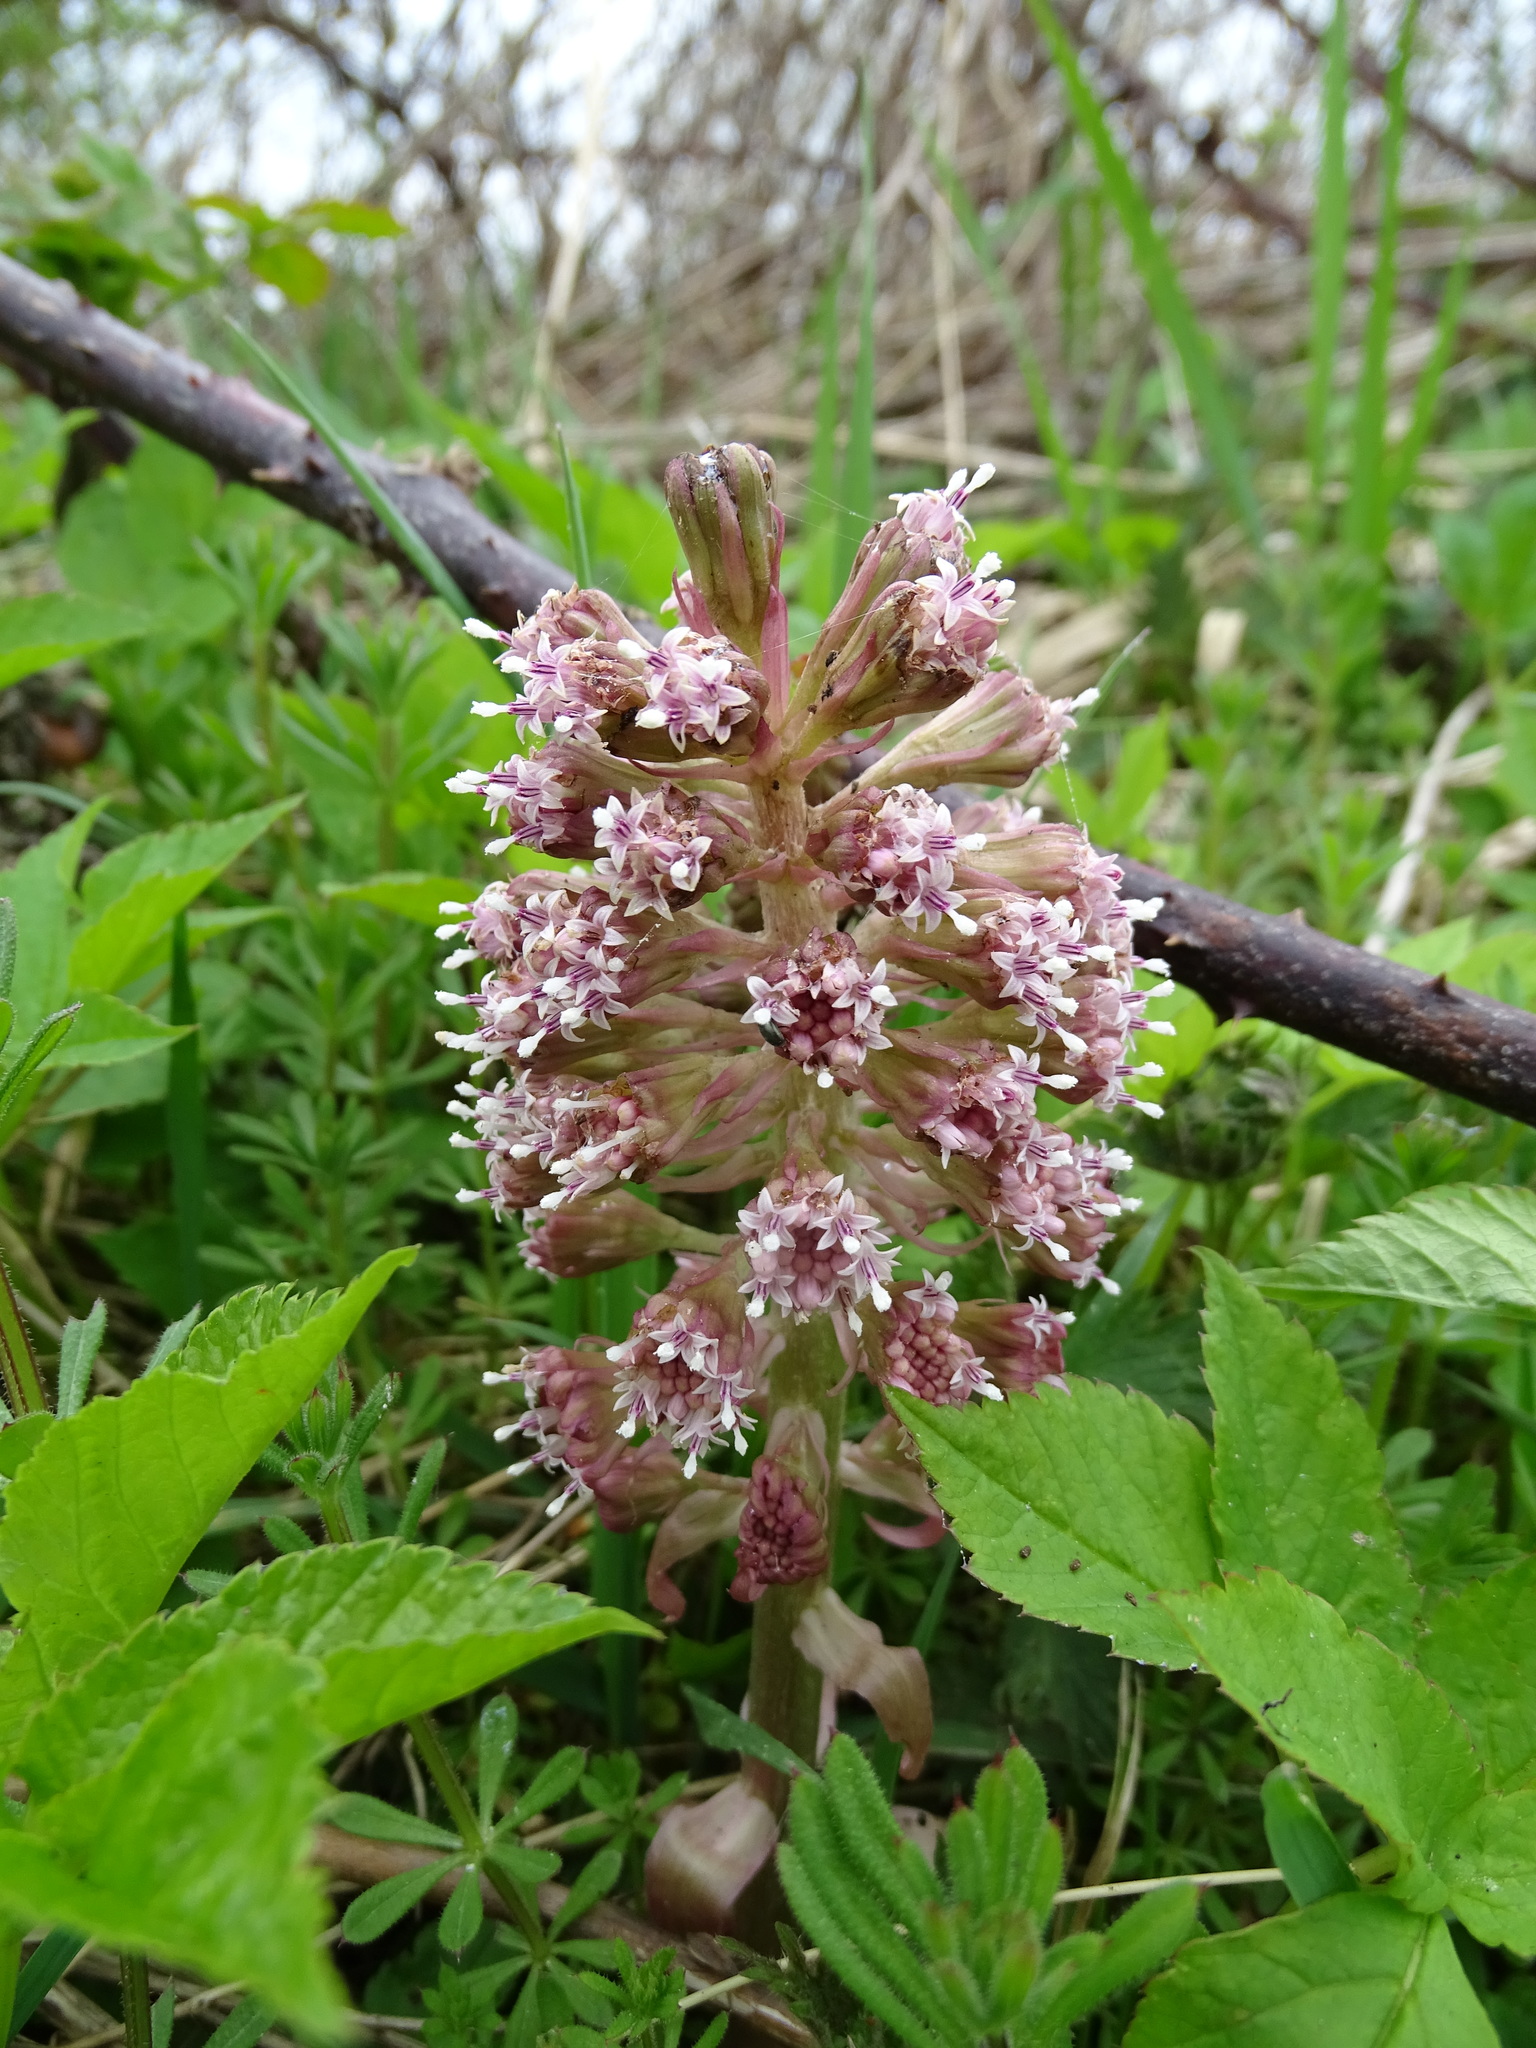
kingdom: Plantae
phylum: Tracheophyta
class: Magnoliopsida
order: Asterales
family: Asteraceae
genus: Petasites
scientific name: Petasites hybridus
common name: Butterbur
